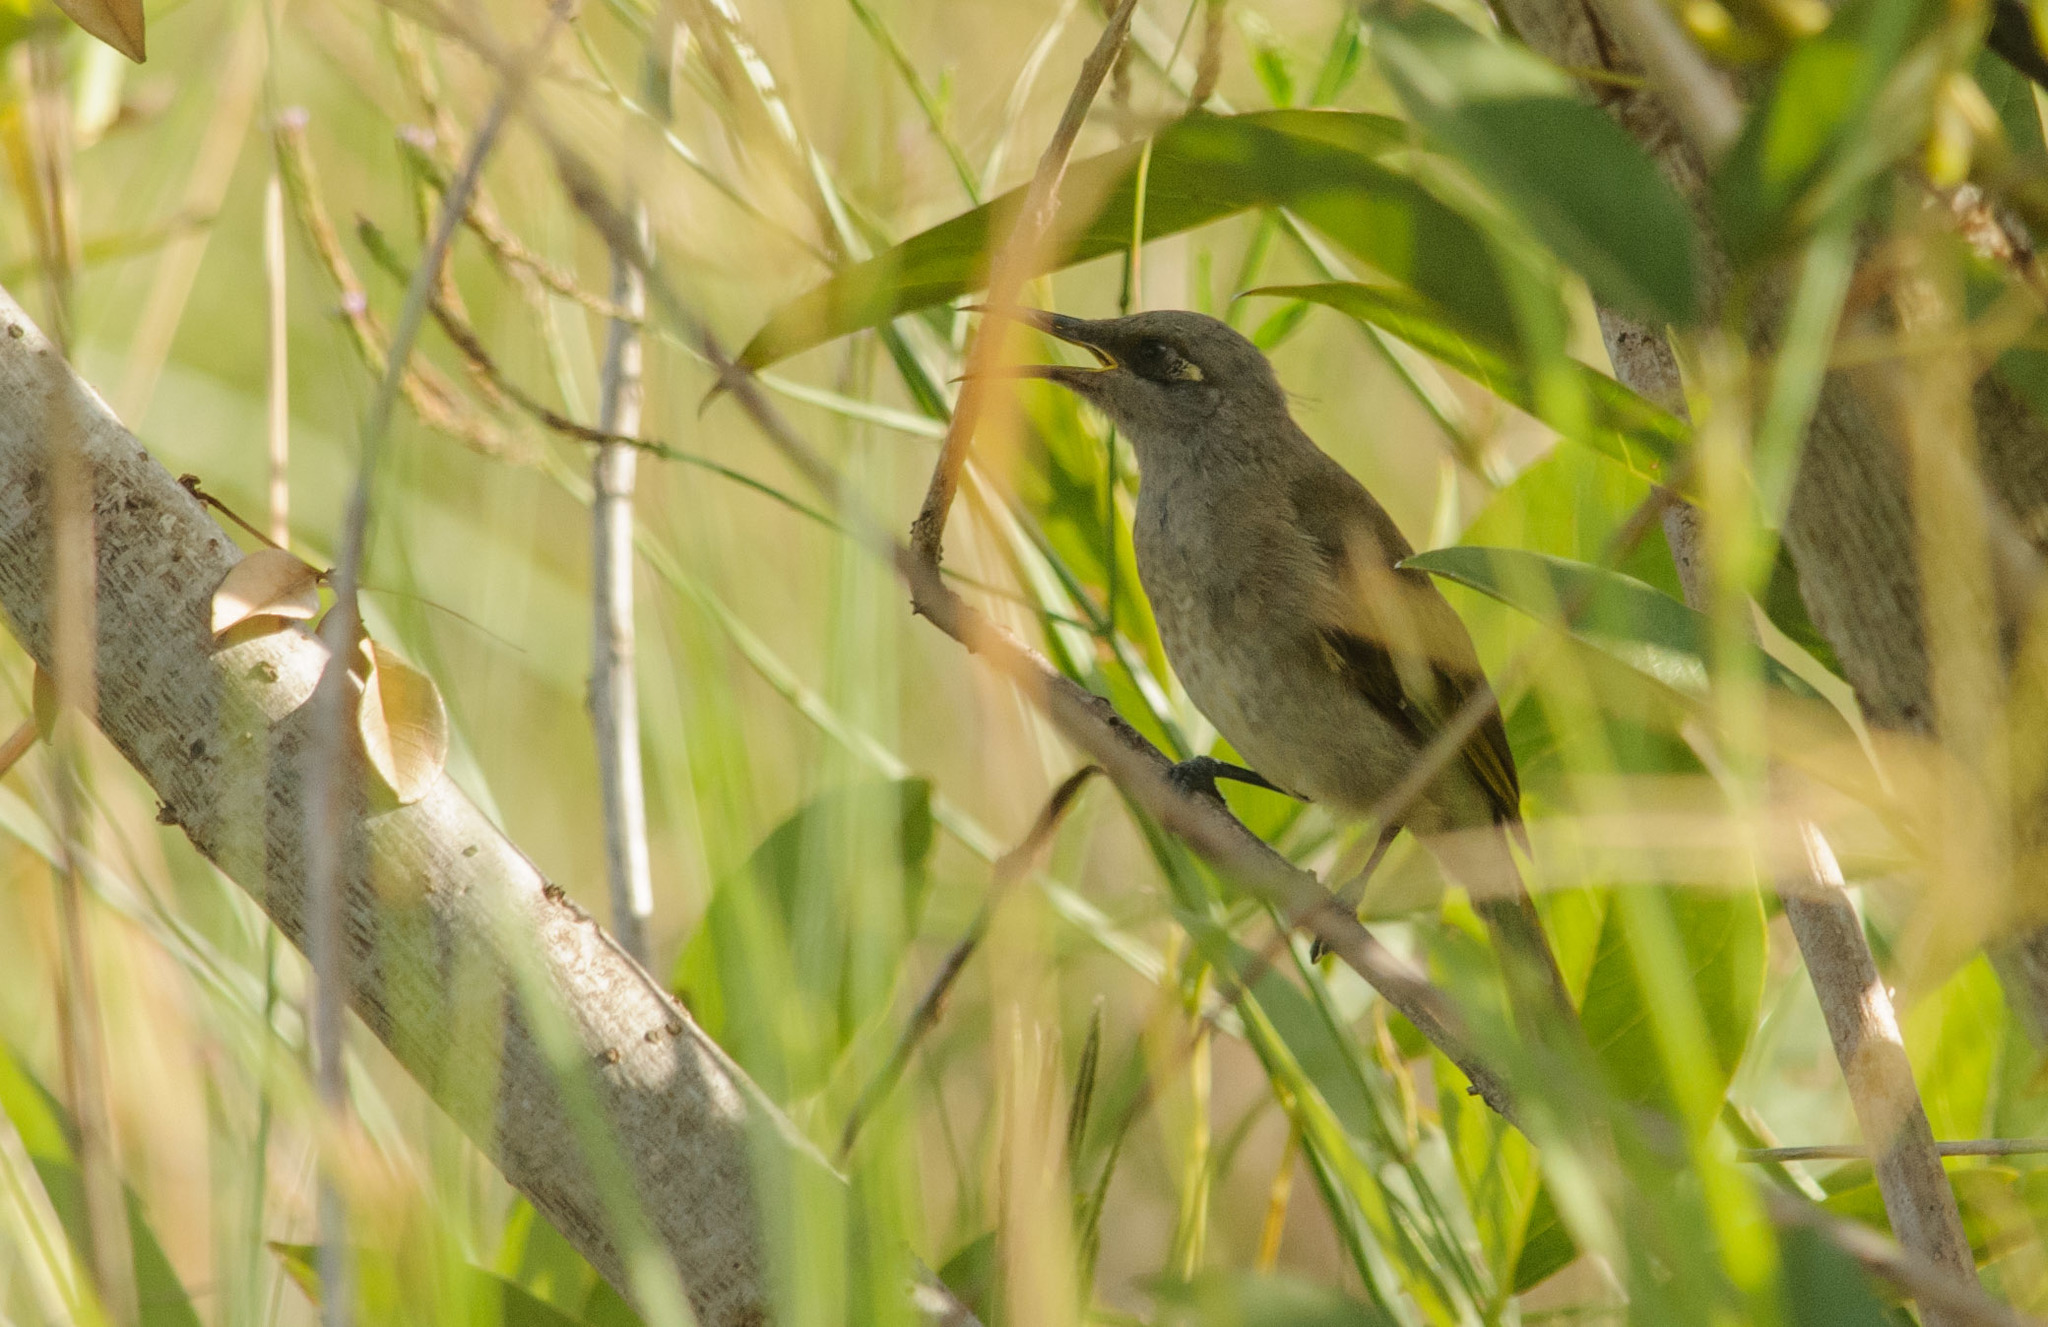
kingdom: Animalia
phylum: Chordata
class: Aves
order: Passeriformes
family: Meliphagidae
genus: Lichmera
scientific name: Lichmera indistincta
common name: Brown honeyeater
